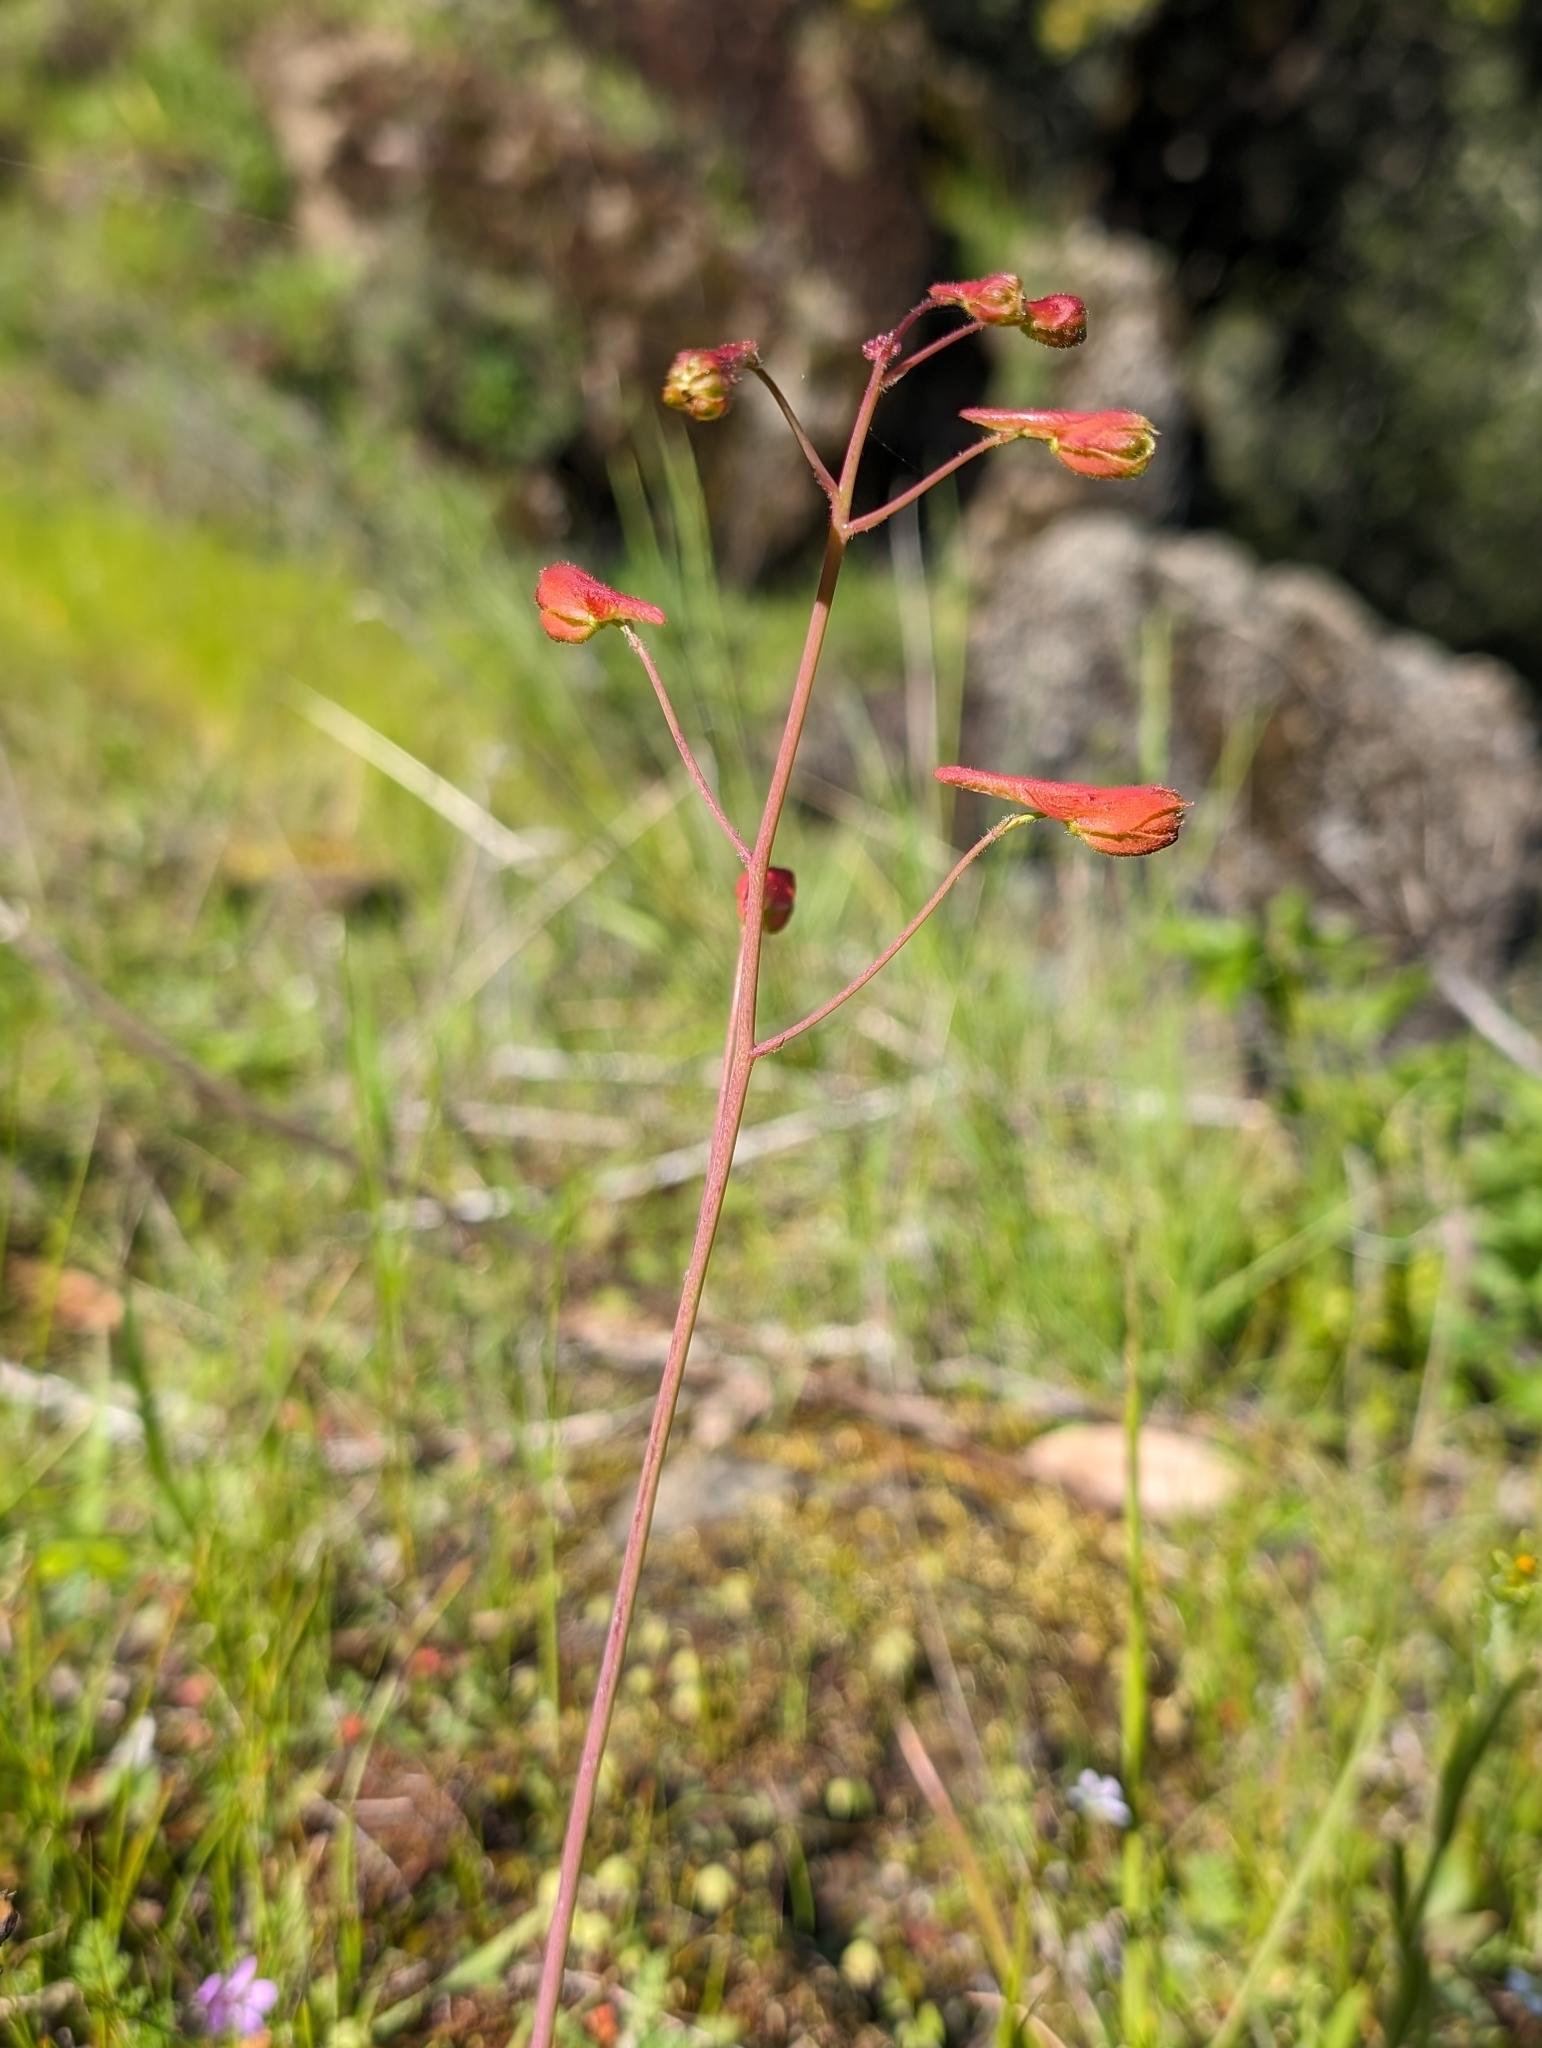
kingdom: Plantae
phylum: Tracheophyta
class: Magnoliopsida
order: Ranunculales
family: Ranunculaceae
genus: Delphinium
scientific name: Delphinium nudicaule
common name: Red larkspur
